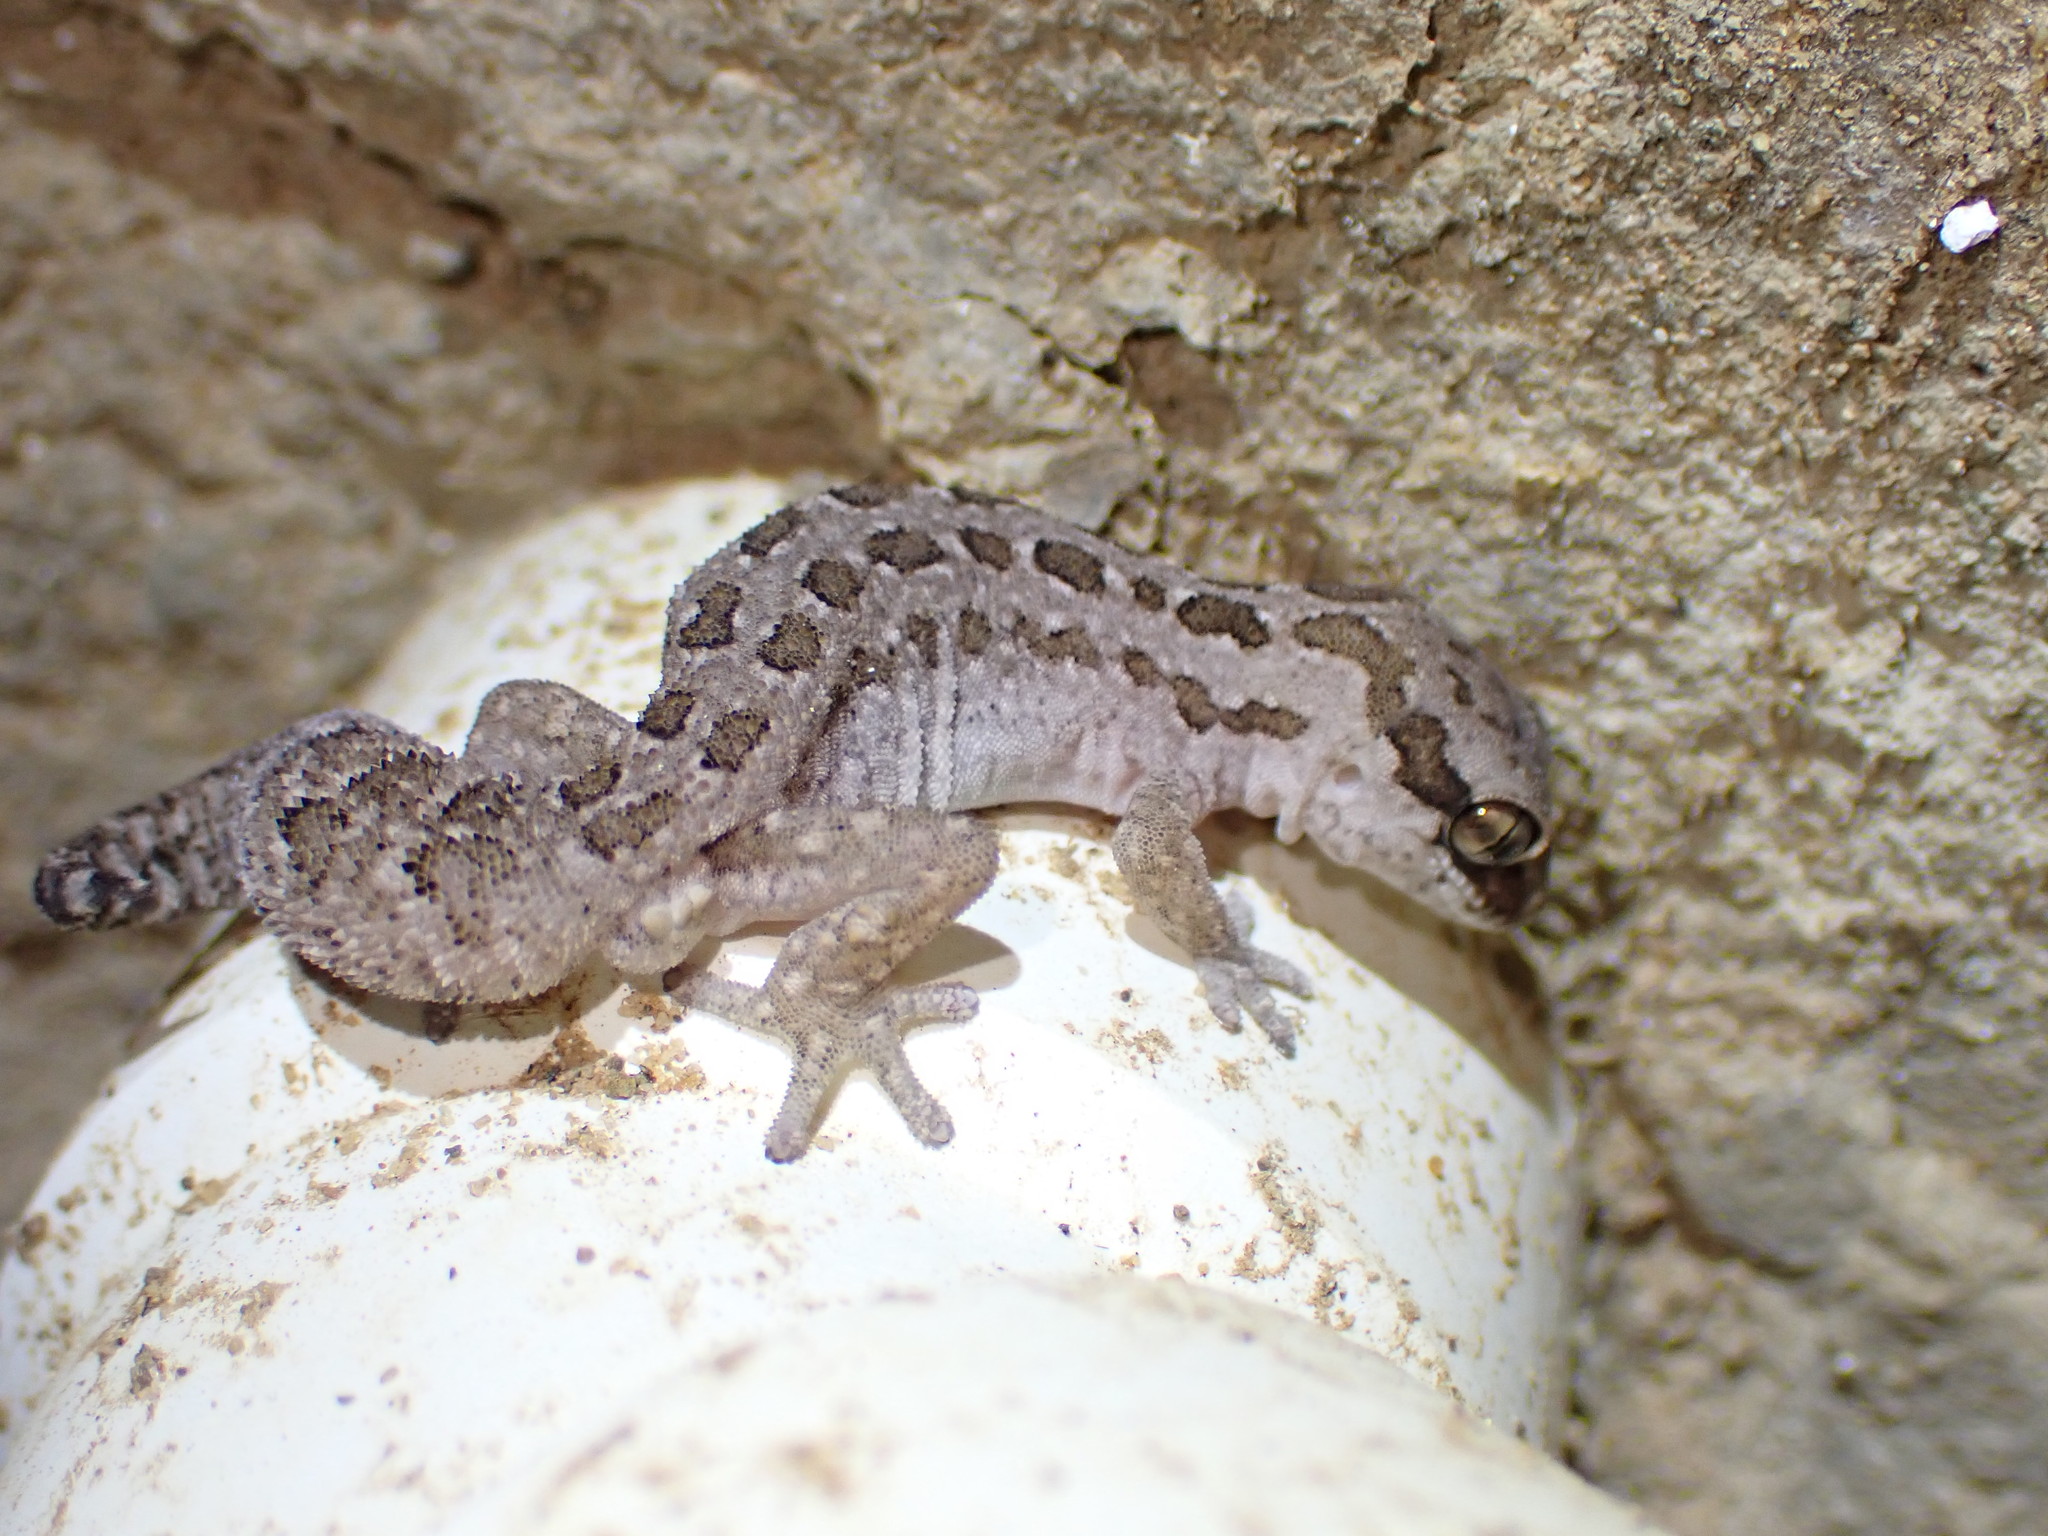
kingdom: Animalia
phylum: Chordata
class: Squamata
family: Gekkonidae
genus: Pachydactylus
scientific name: Pachydactylus maculatus
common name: Spotted thick-toed gecko
